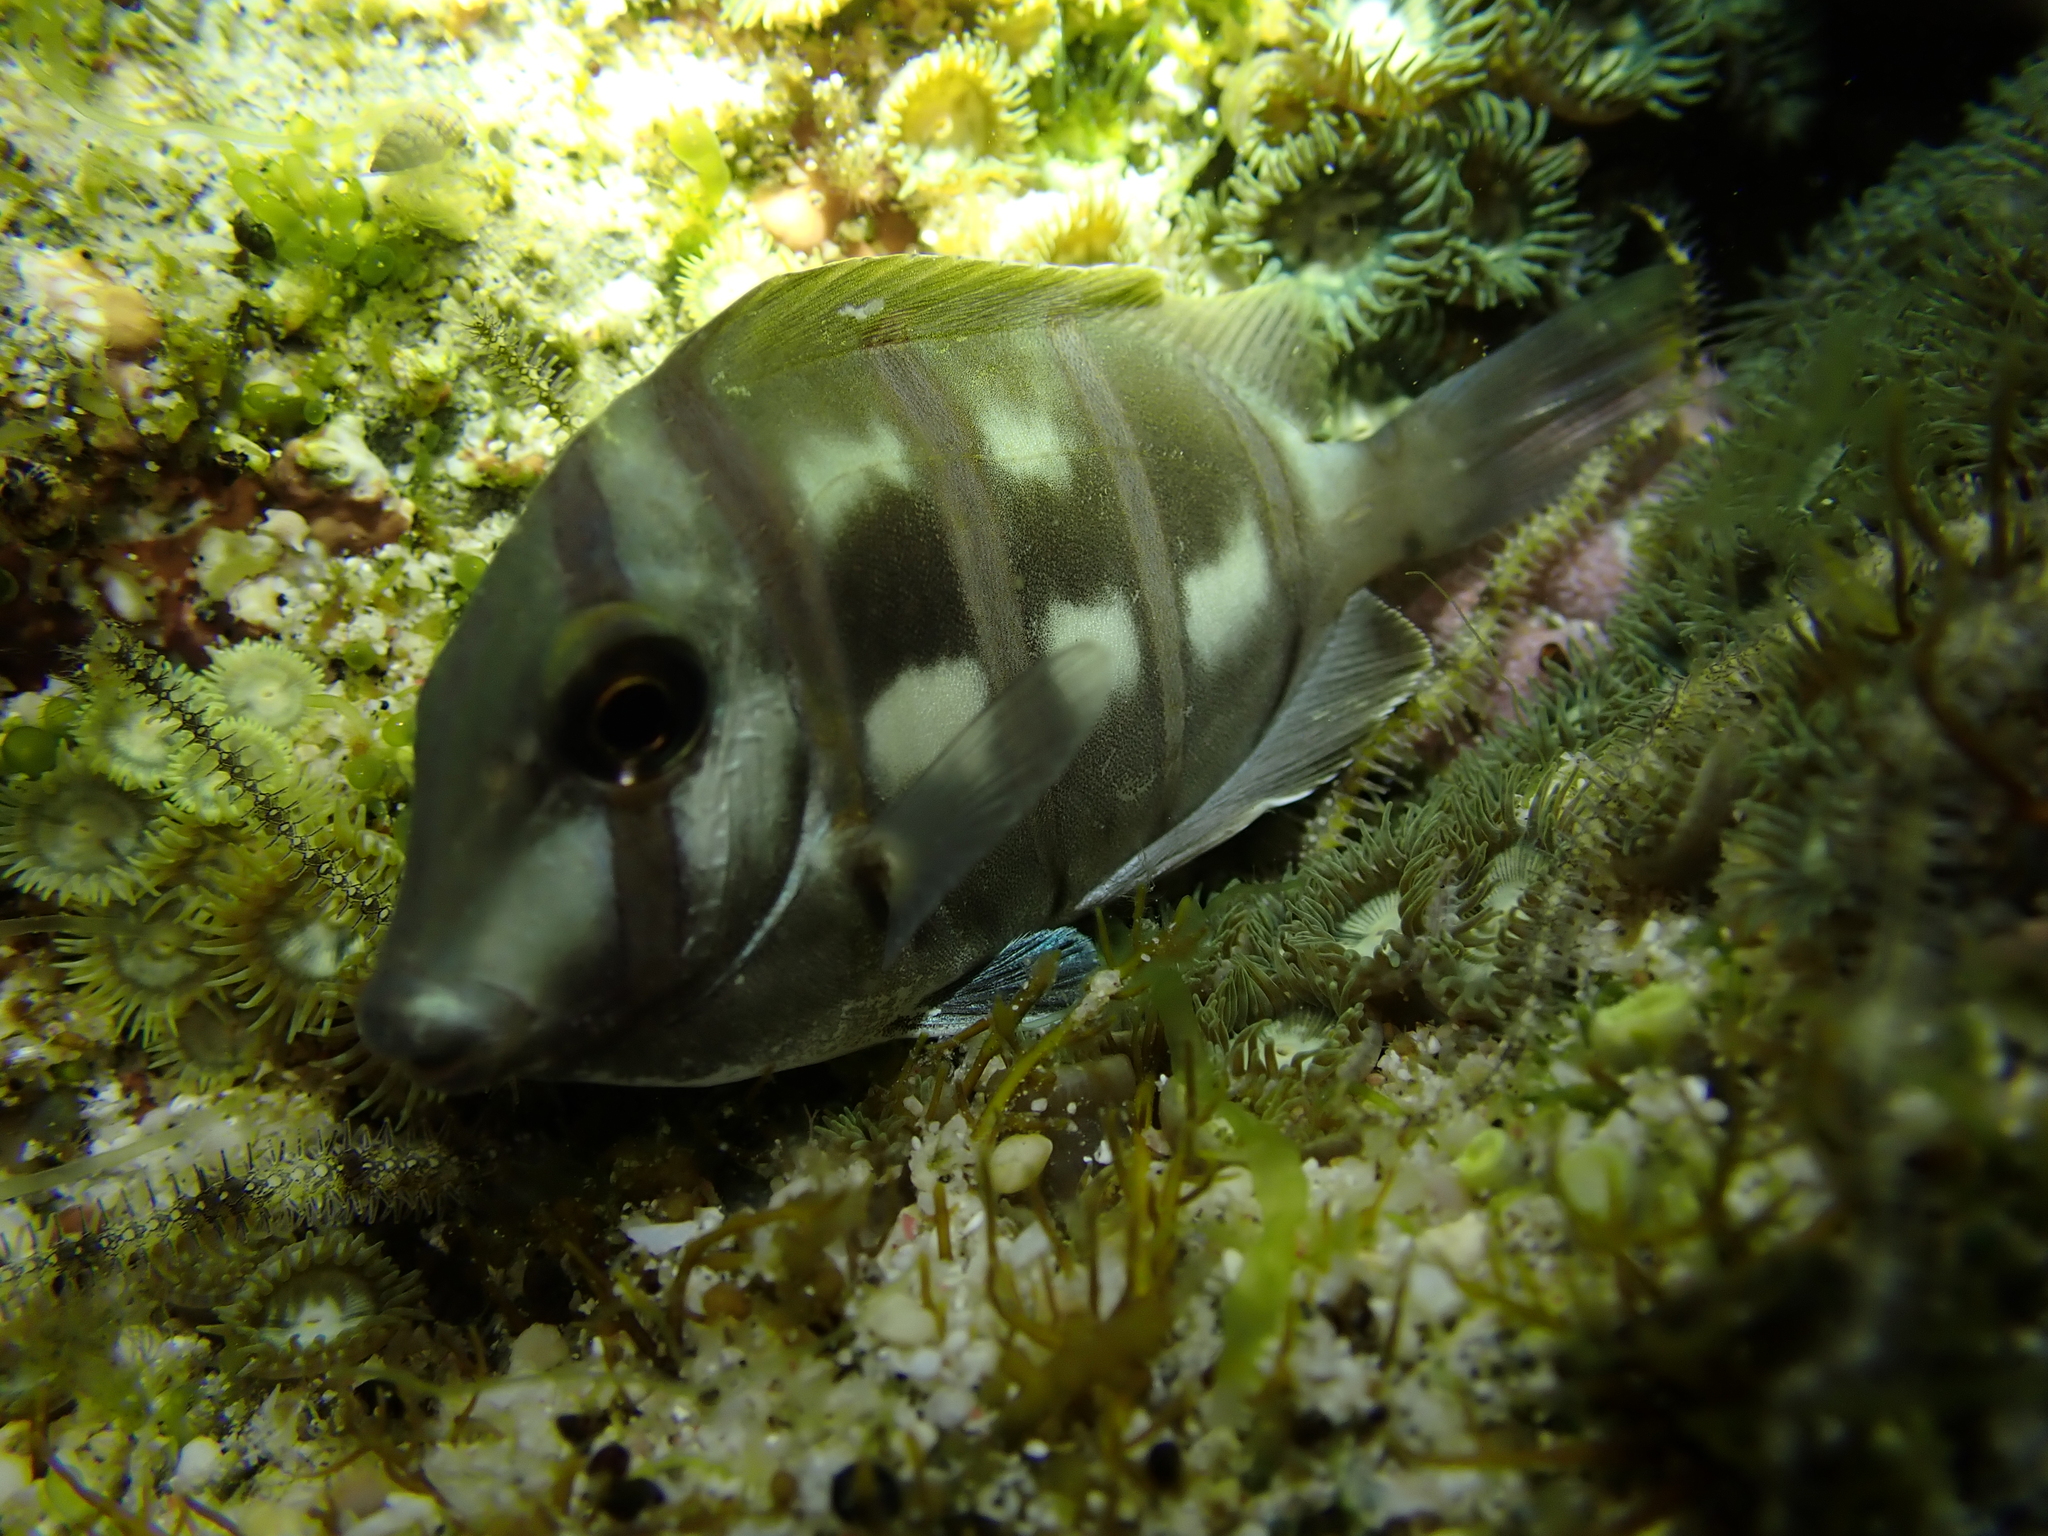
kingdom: Animalia
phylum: Chordata
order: Perciformes
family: Acanthuridae
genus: Acanthurus
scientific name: Acanthurus triostegus
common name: Convict surgeonfish
